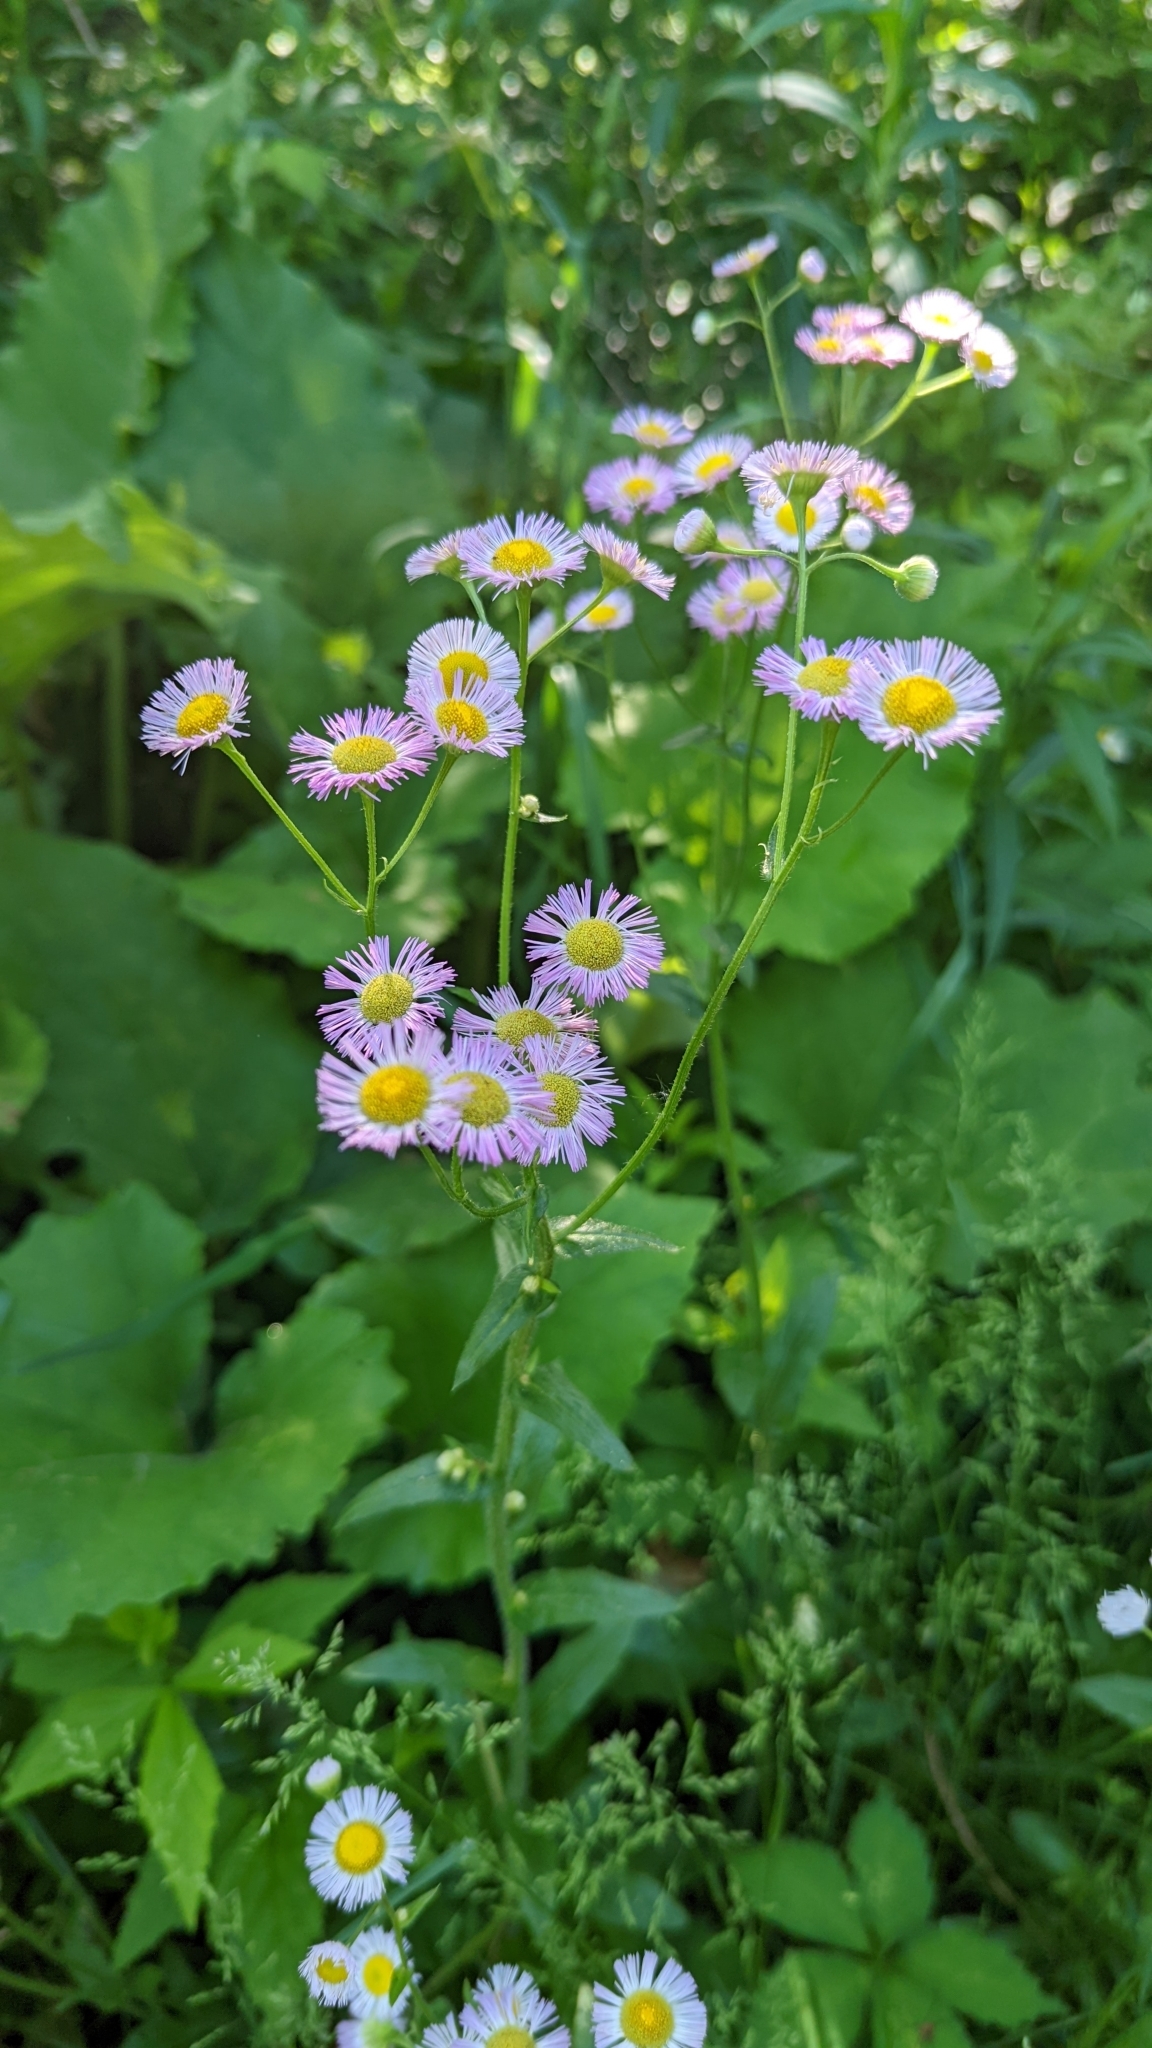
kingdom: Plantae
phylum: Tracheophyta
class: Magnoliopsida
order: Asterales
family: Asteraceae
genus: Erigeron
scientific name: Erigeron philadelphicus
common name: Robin's-plantain
